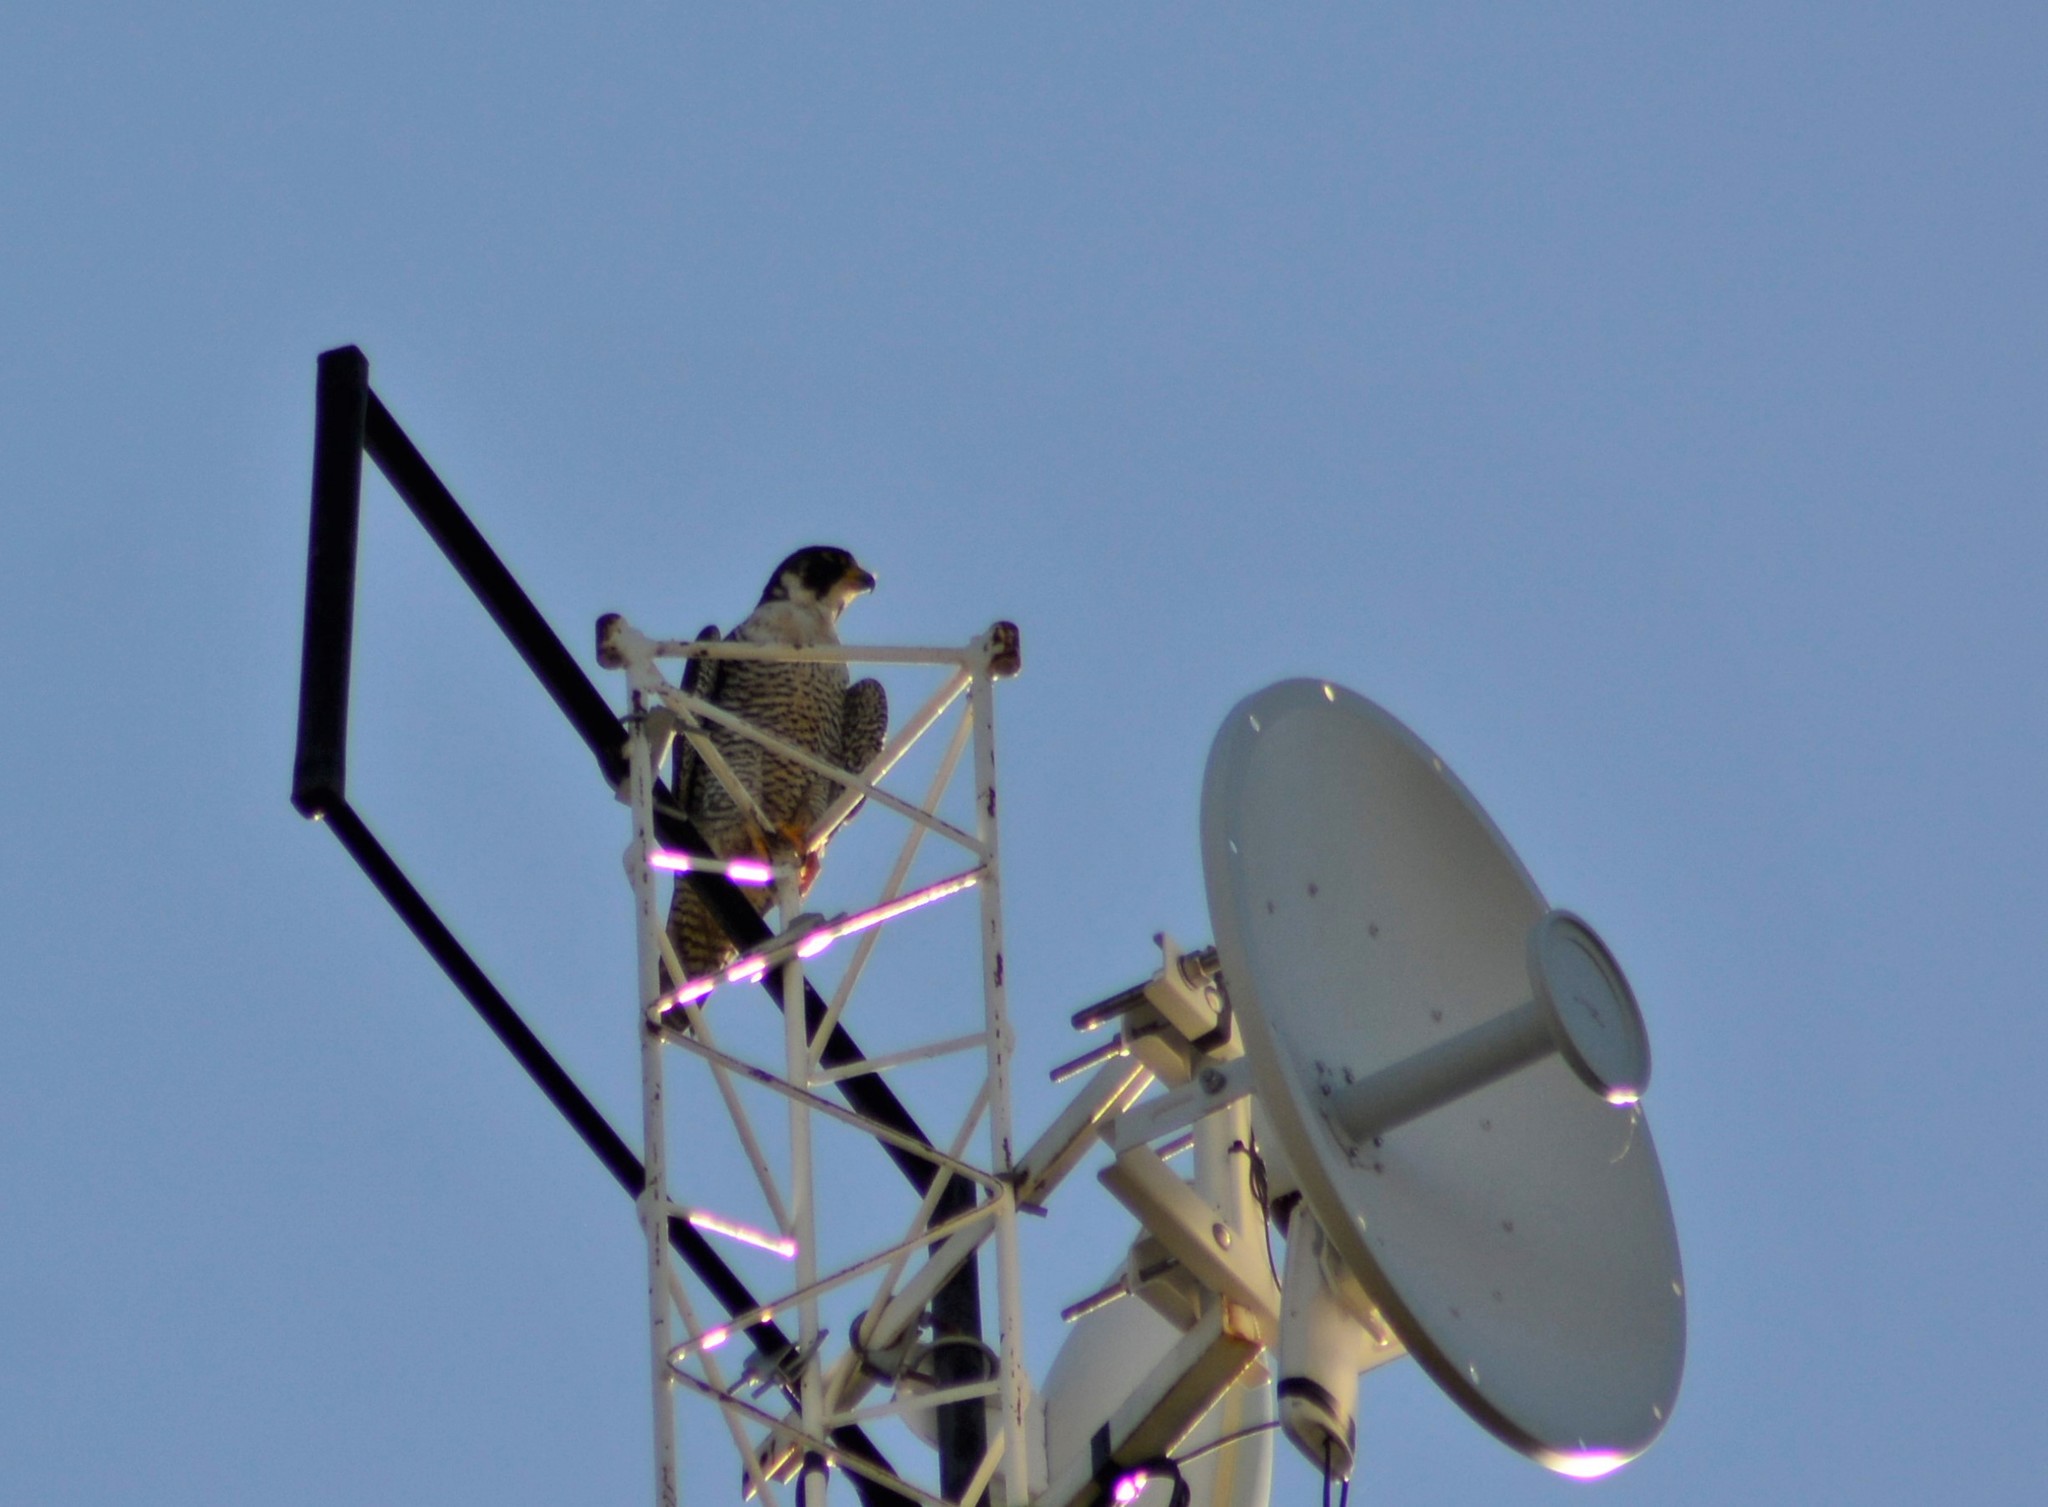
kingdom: Animalia
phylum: Chordata
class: Aves
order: Falconiformes
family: Falconidae
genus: Falco
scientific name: Falco peregrinus
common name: Peregrine falcon
